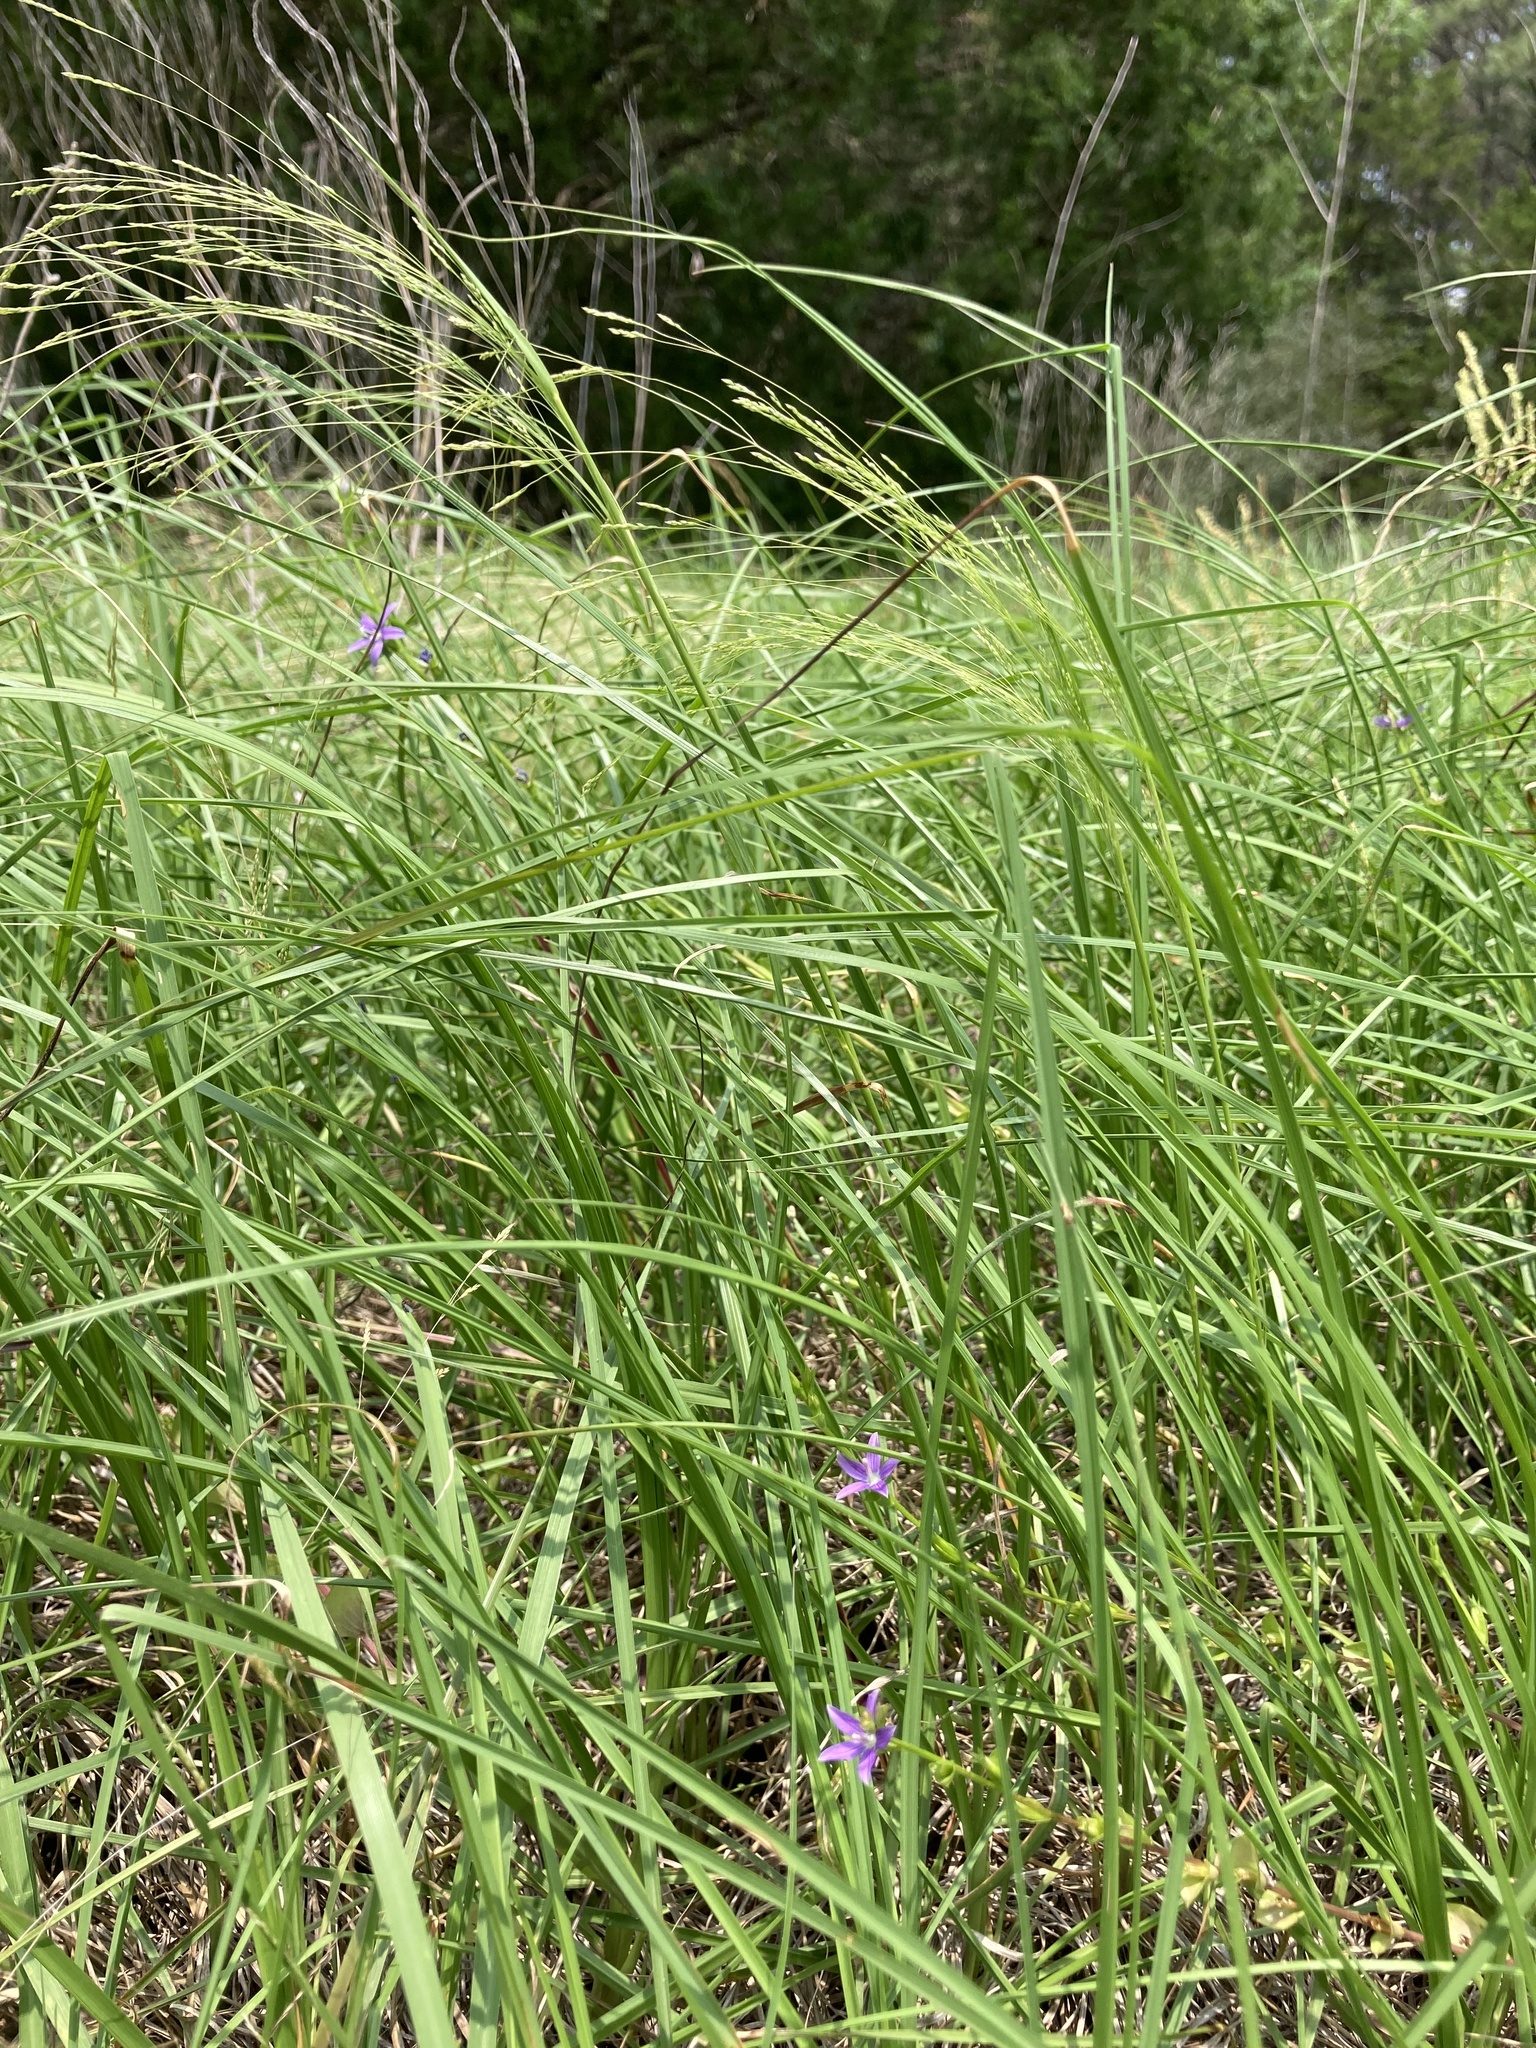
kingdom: Plantae
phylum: Tracheophyta
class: Magnoliopsida
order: Asterales
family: Campanulaceae
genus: Triodanis
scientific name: Triodanis lamprosperma
